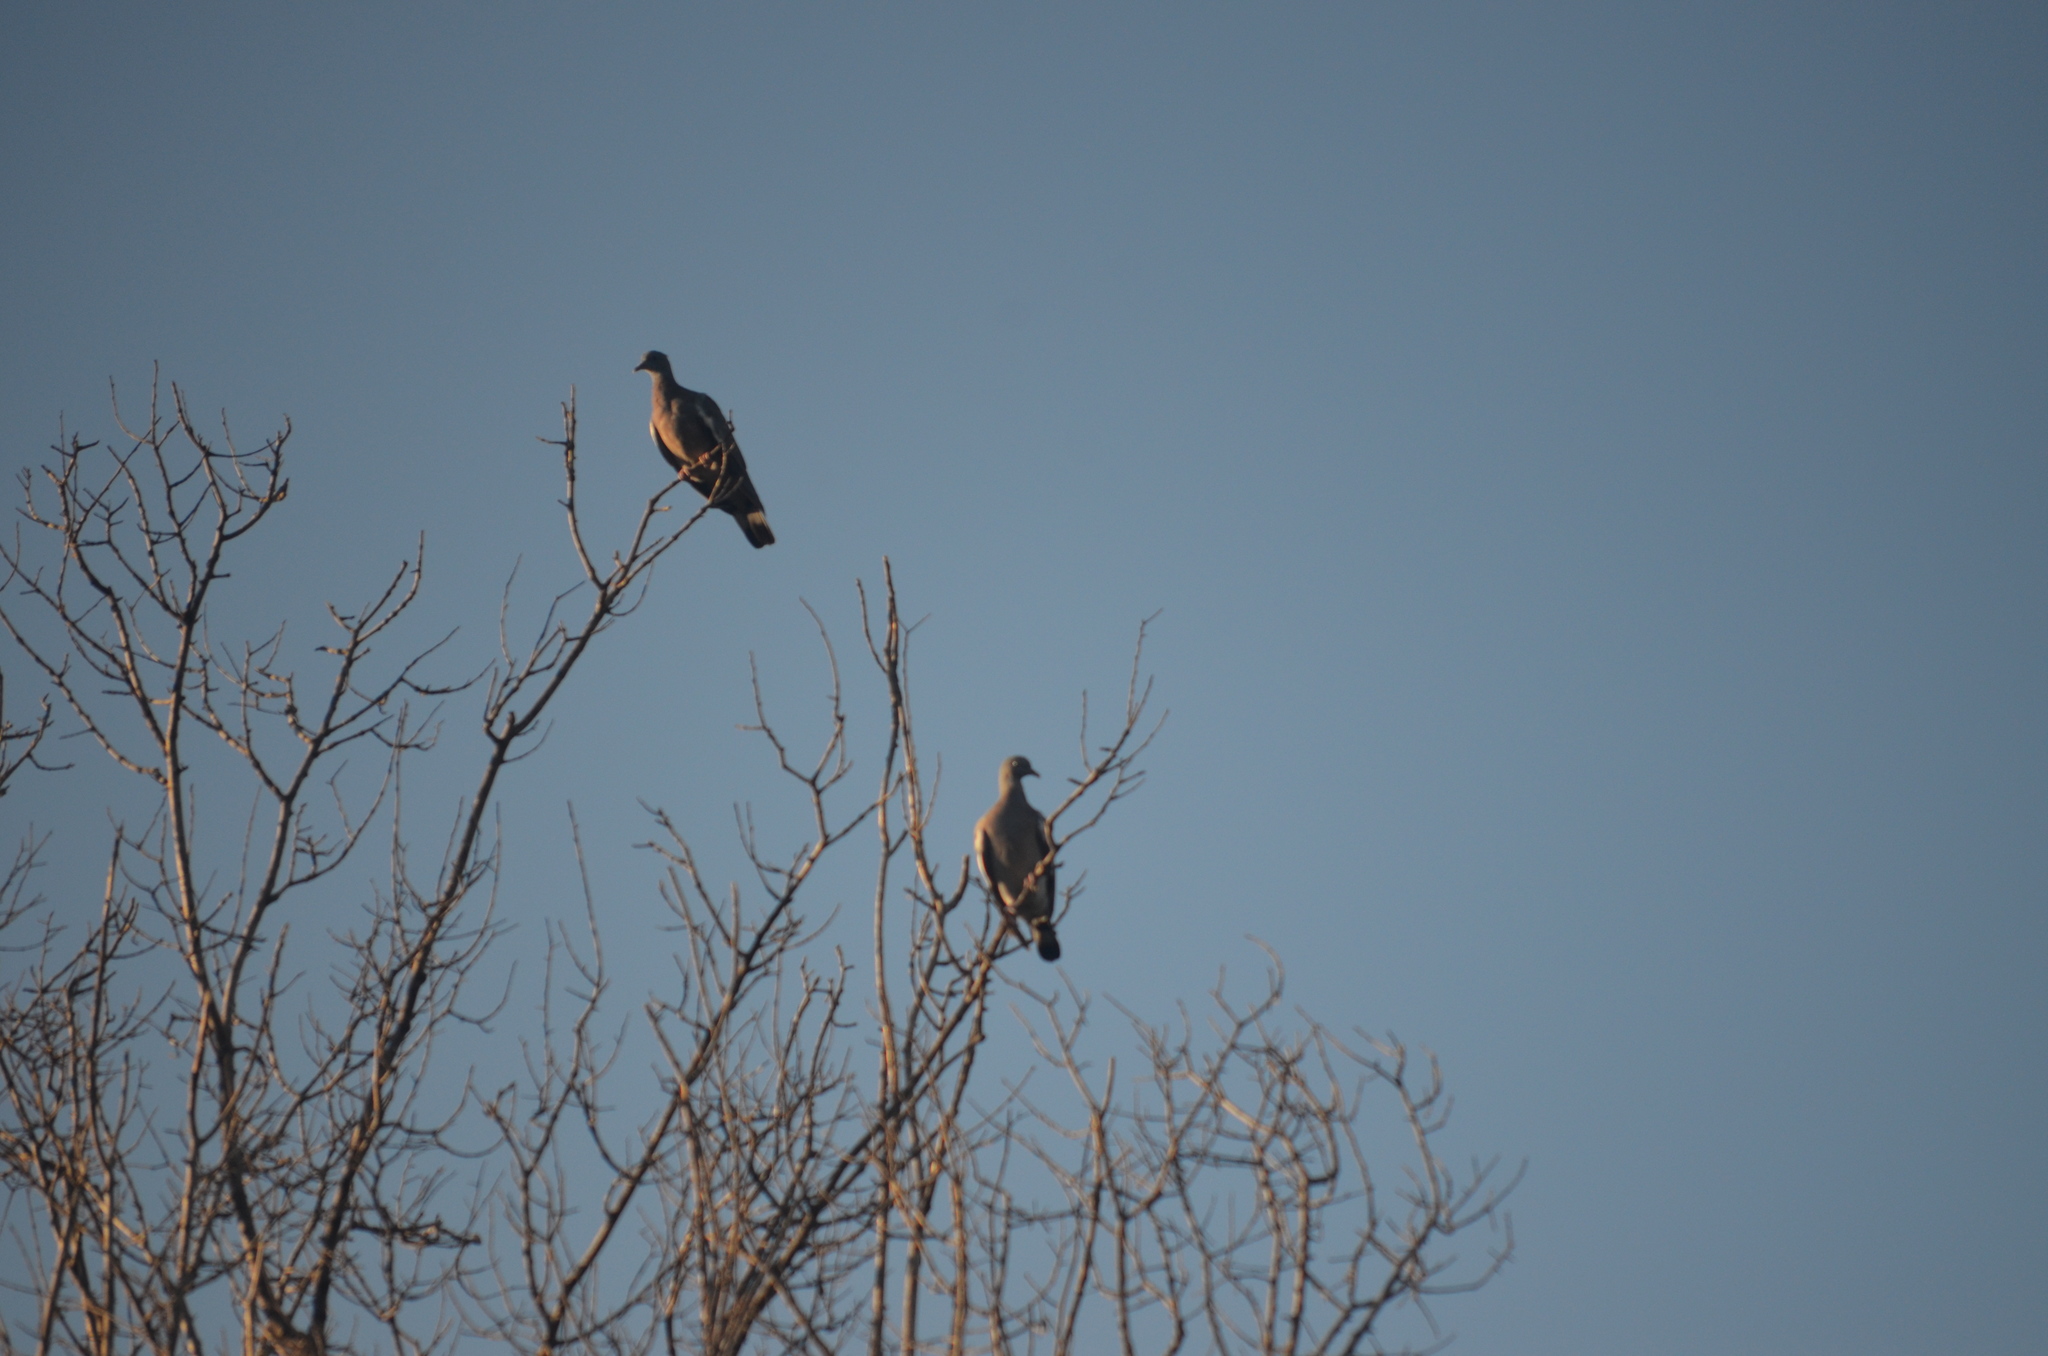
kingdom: Animalia
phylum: Chordata
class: Aves
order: Columbiformes
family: Columbidae
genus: Columba
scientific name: Columba palumbus
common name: Common wood pigeon
